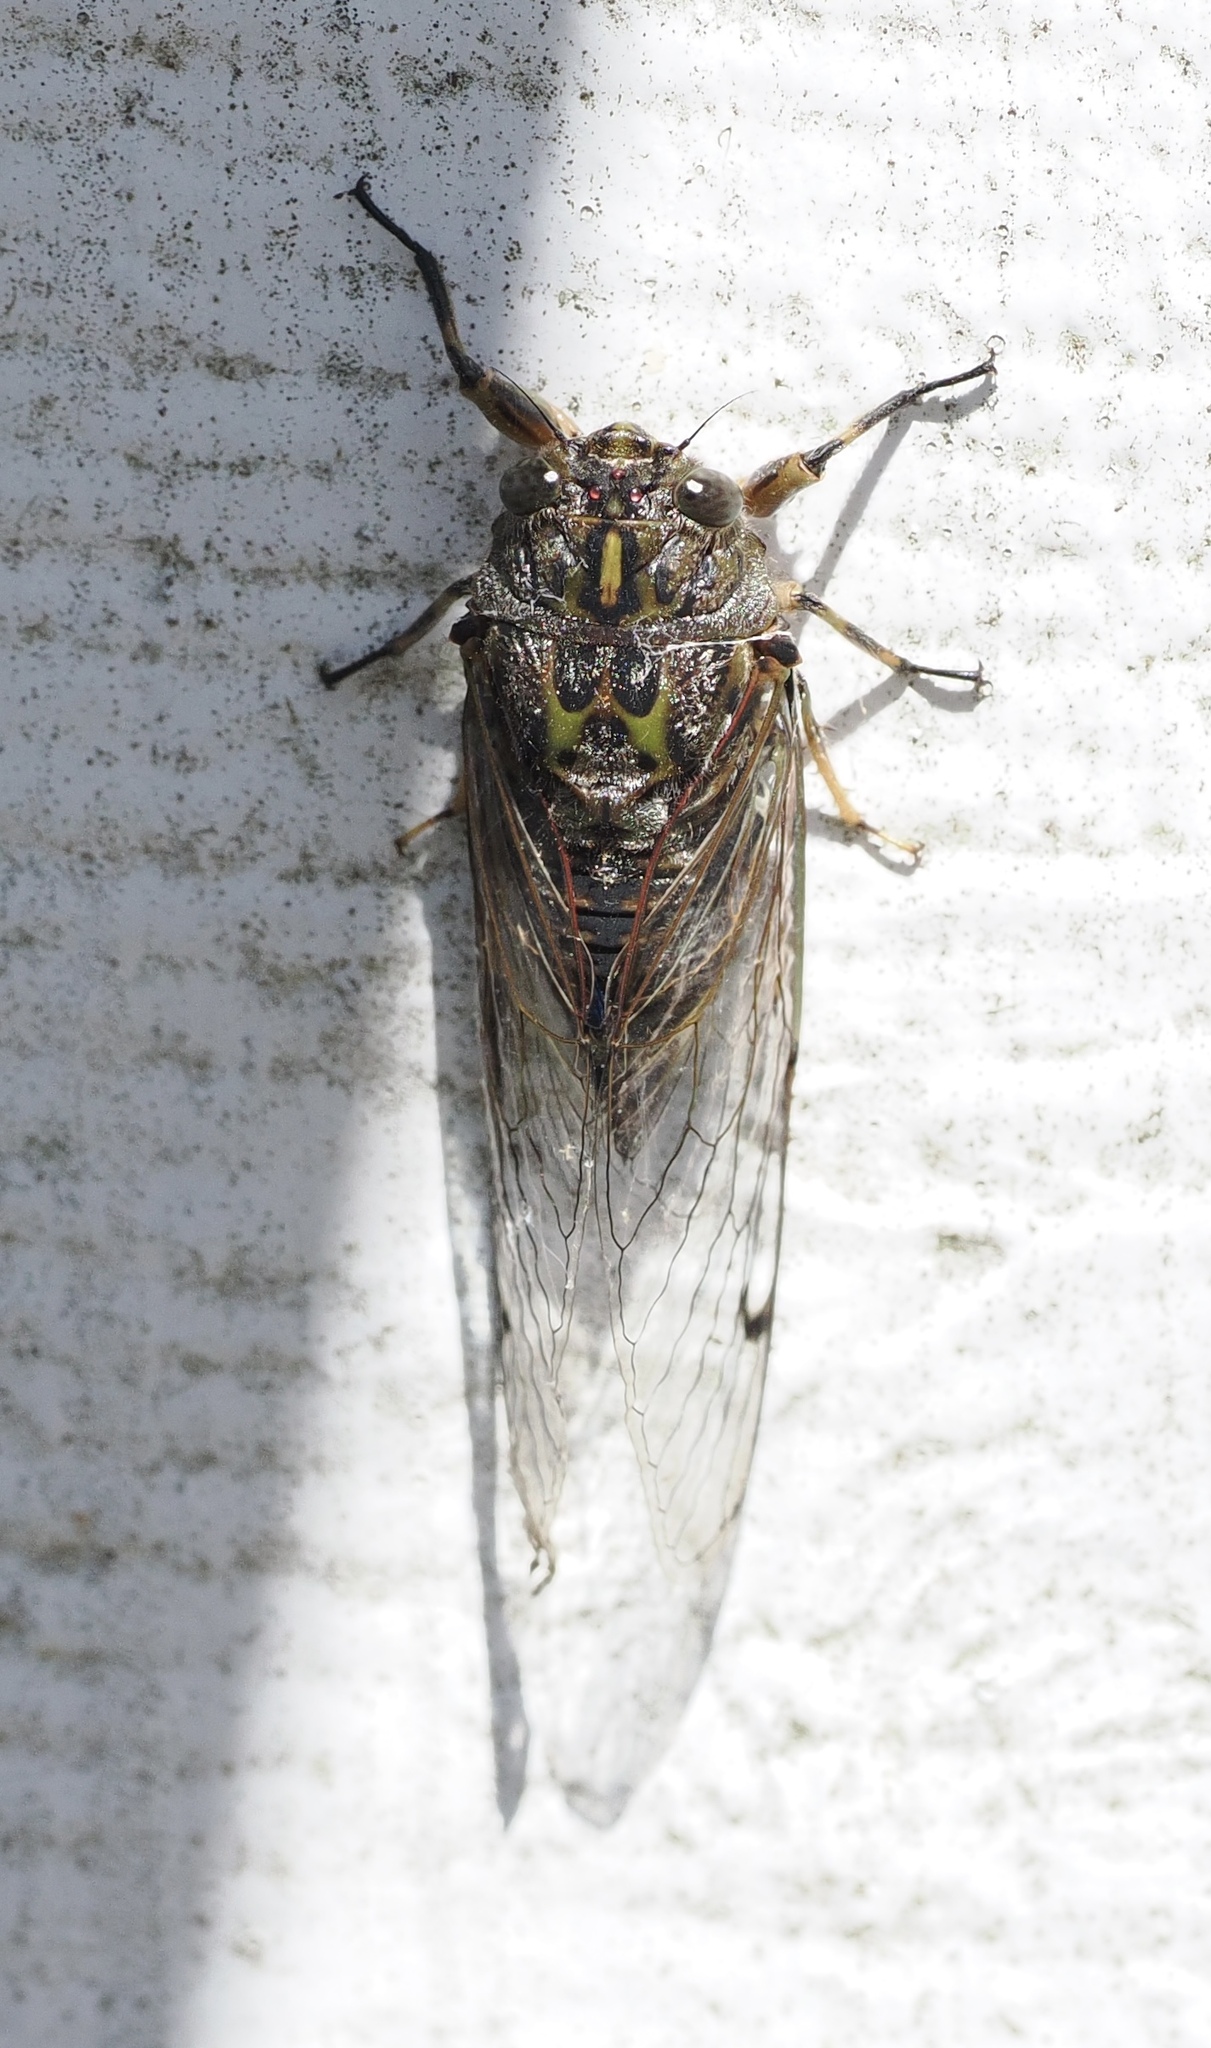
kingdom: Animalia
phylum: Arthropoda
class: Insecta
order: Hemiptera
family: Cicadidae
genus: Amphipsalta
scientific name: Amphipsalta cingulata
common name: Clapping cicada
